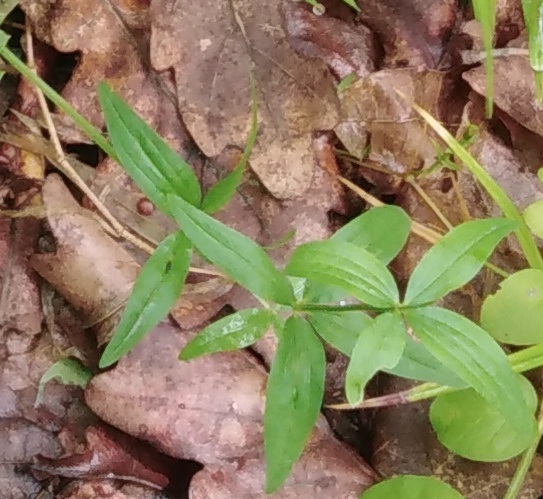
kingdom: Plantae
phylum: Tracheophyta
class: Magnoliopsida
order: Gentianales
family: Rubiaceae
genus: Galium
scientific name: Galium boreale
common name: Northern bedstraw
